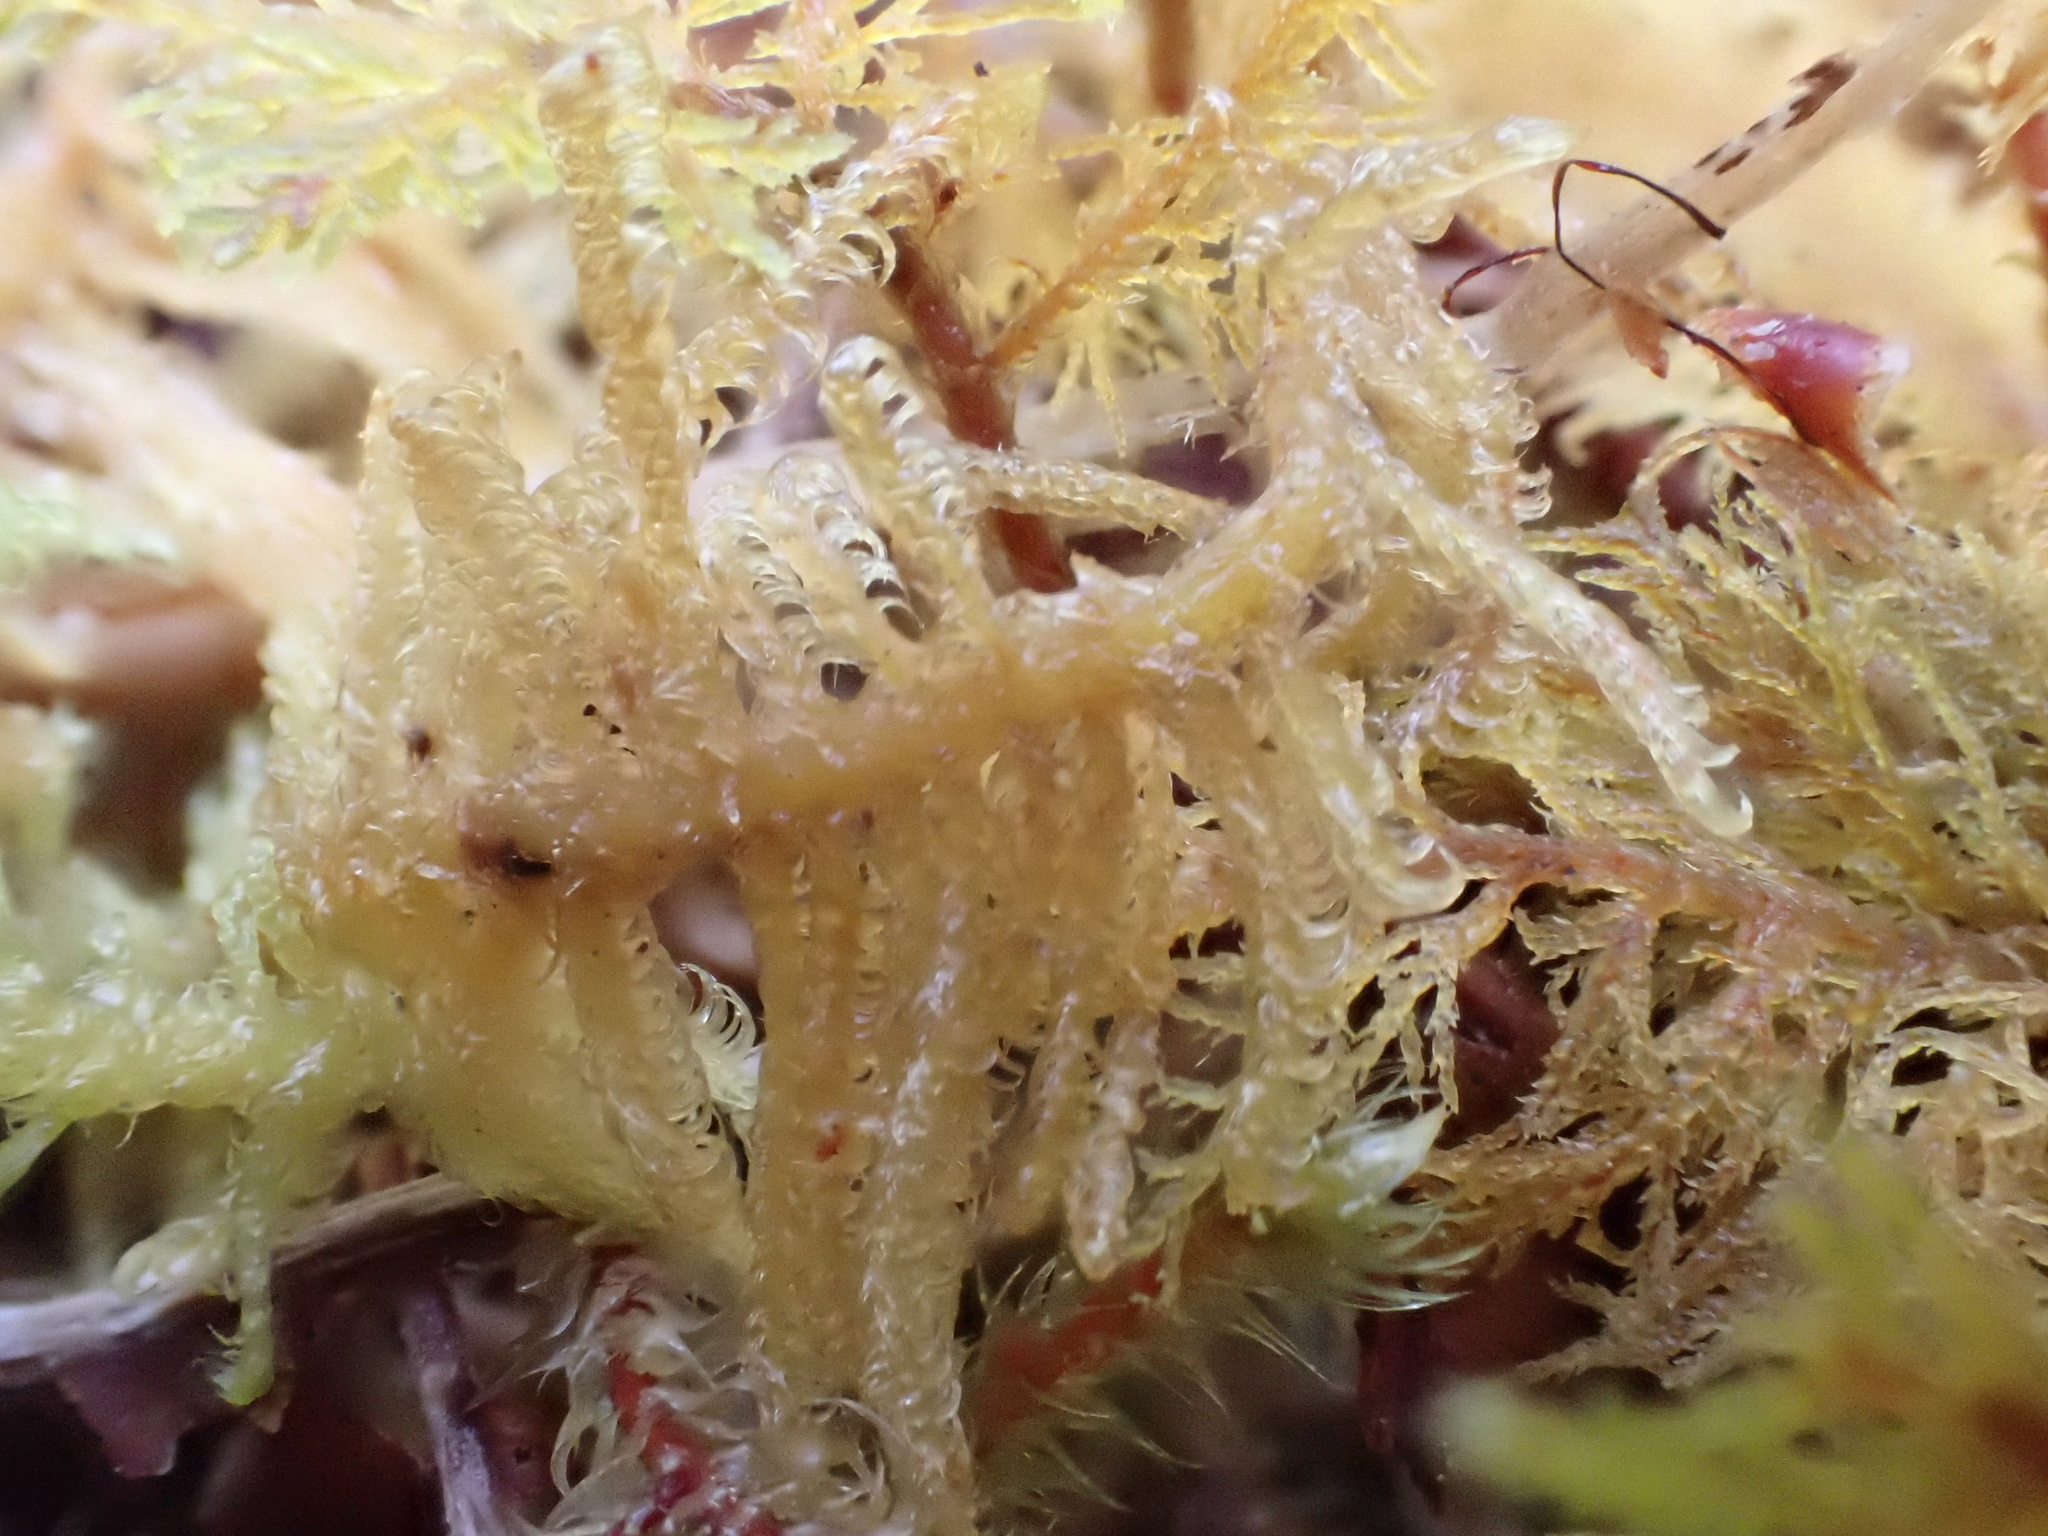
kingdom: Plantae
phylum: Bryophyta
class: Bryopsida
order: Hypnales
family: Hylocomiaceae
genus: Hylocomium
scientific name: Hylocomium splendens
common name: Stairstep moss
